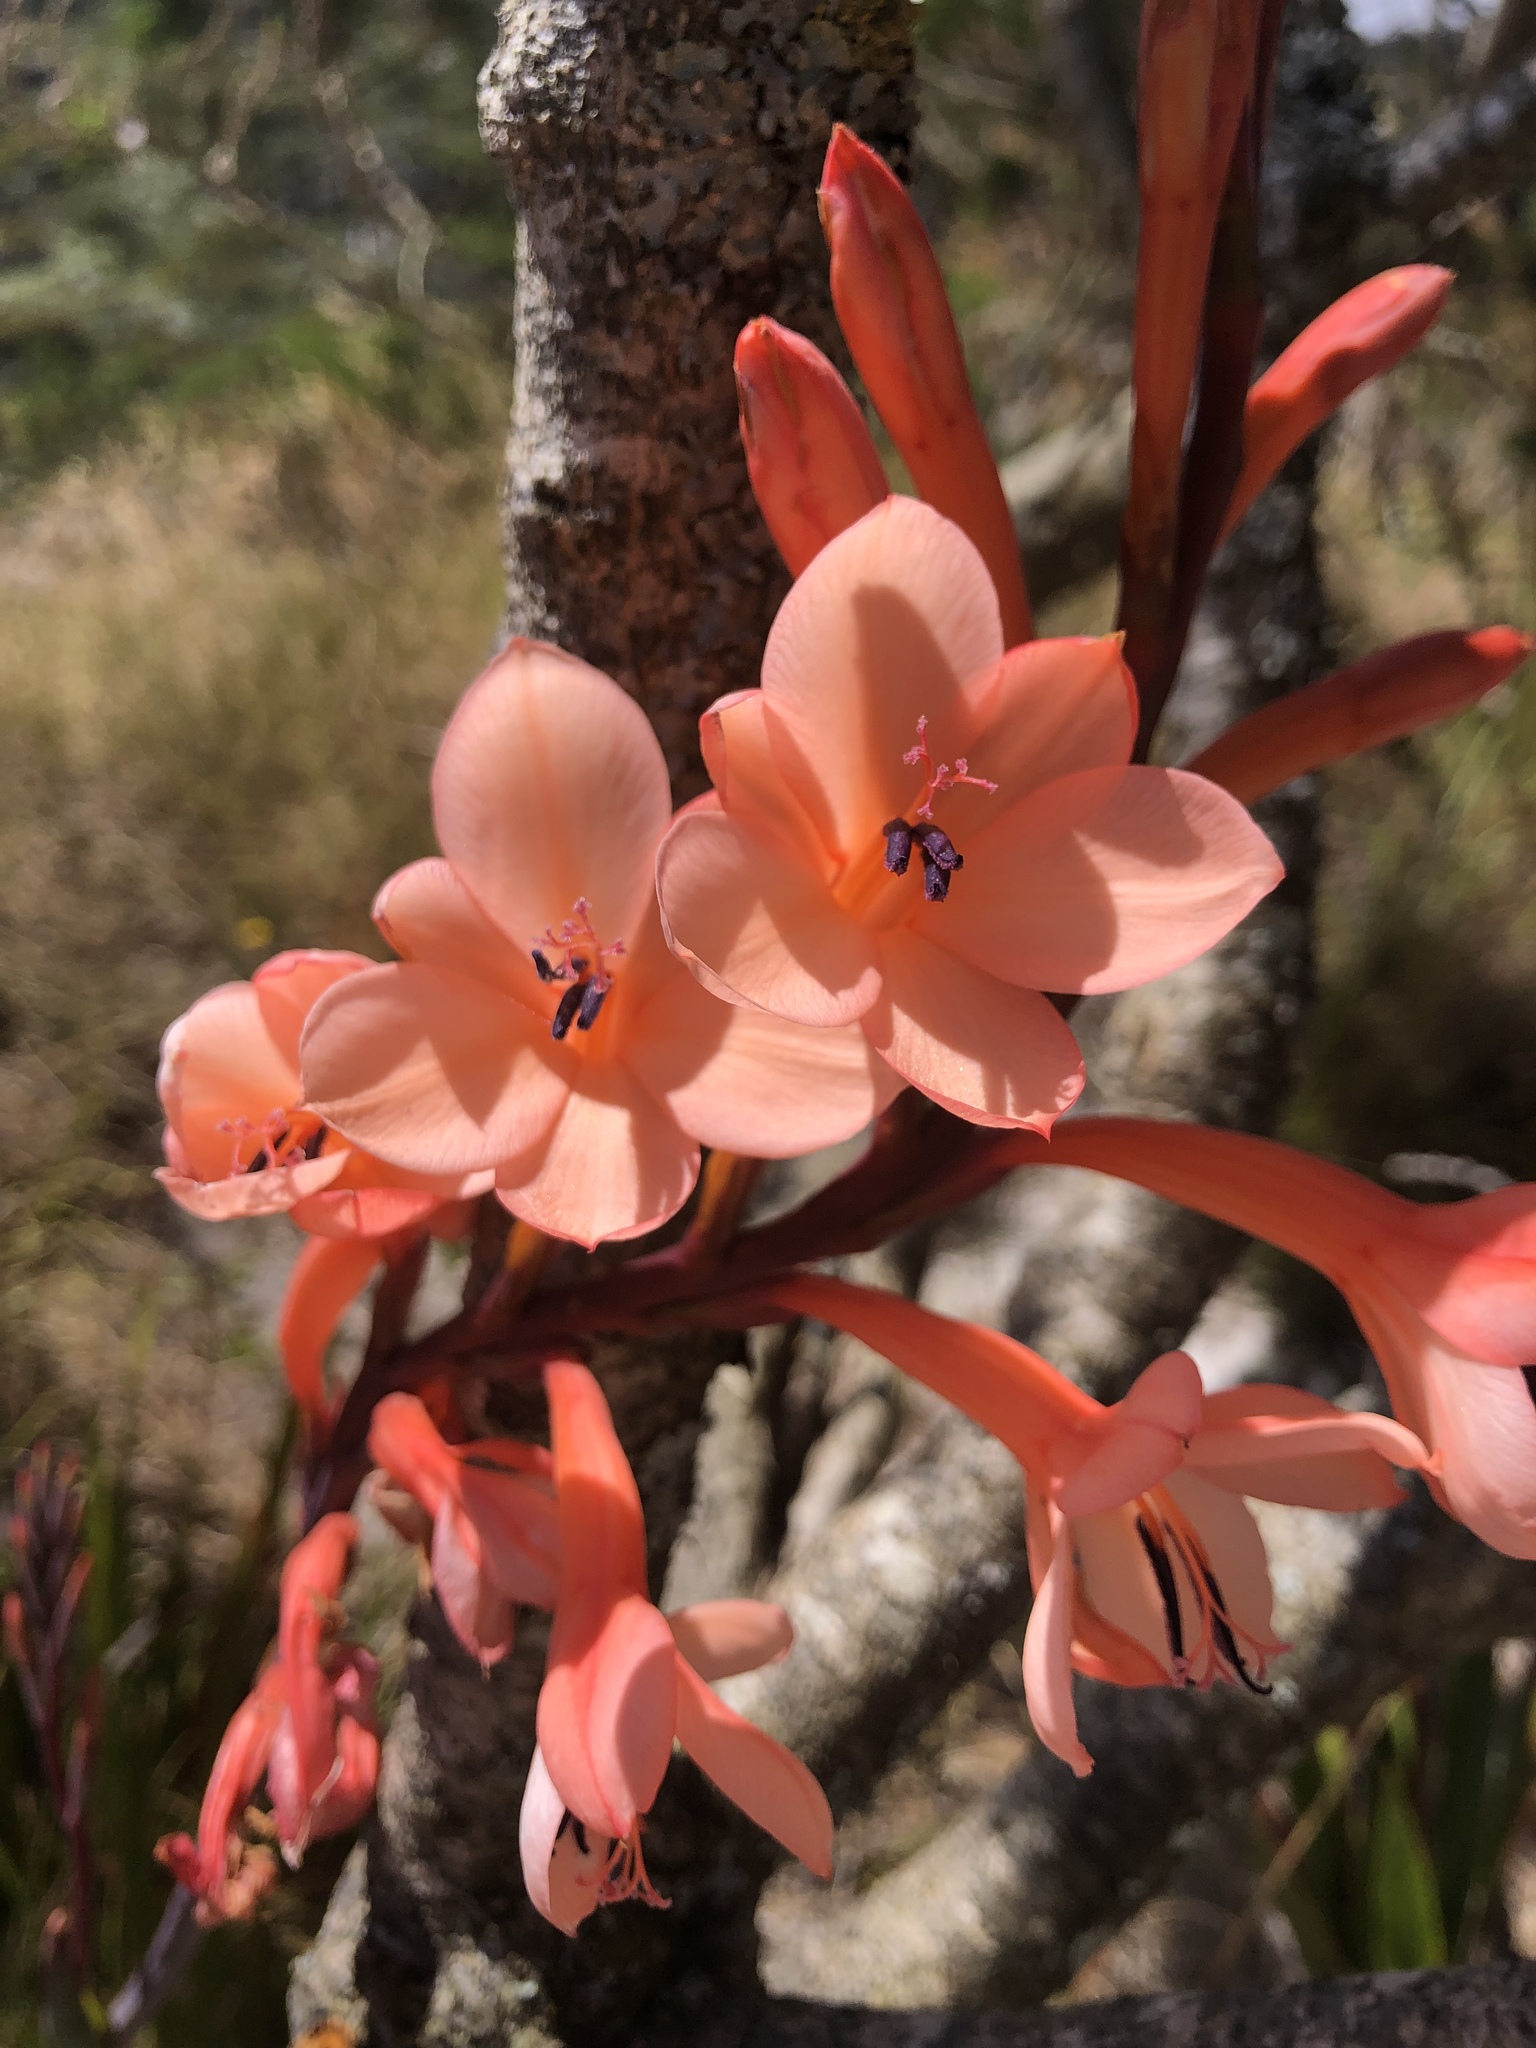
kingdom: Plantae
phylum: Tracheophyta
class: Liliopsida
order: Asparagales
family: Iridaceae
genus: Watsonia
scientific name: Watsonia tabularis
